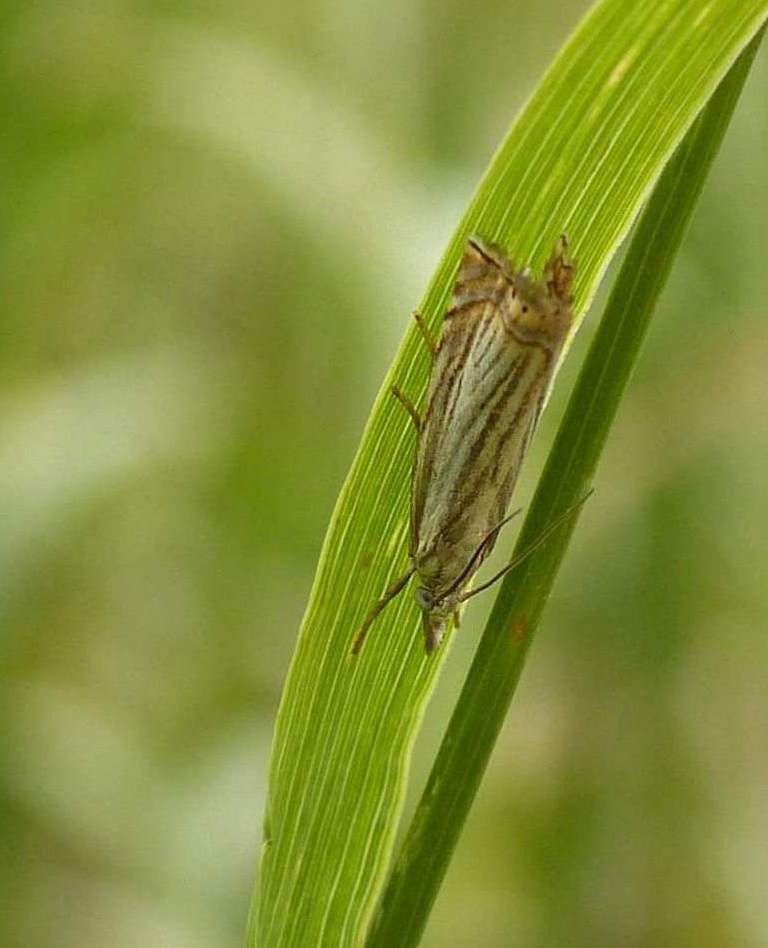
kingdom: Animalia
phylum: Arthropoda
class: Insecta
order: Lepidoptera
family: Crambidae
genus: Chrysoteuchia
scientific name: Chrysoteuchia topiarius
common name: Topiary grass-veneer
